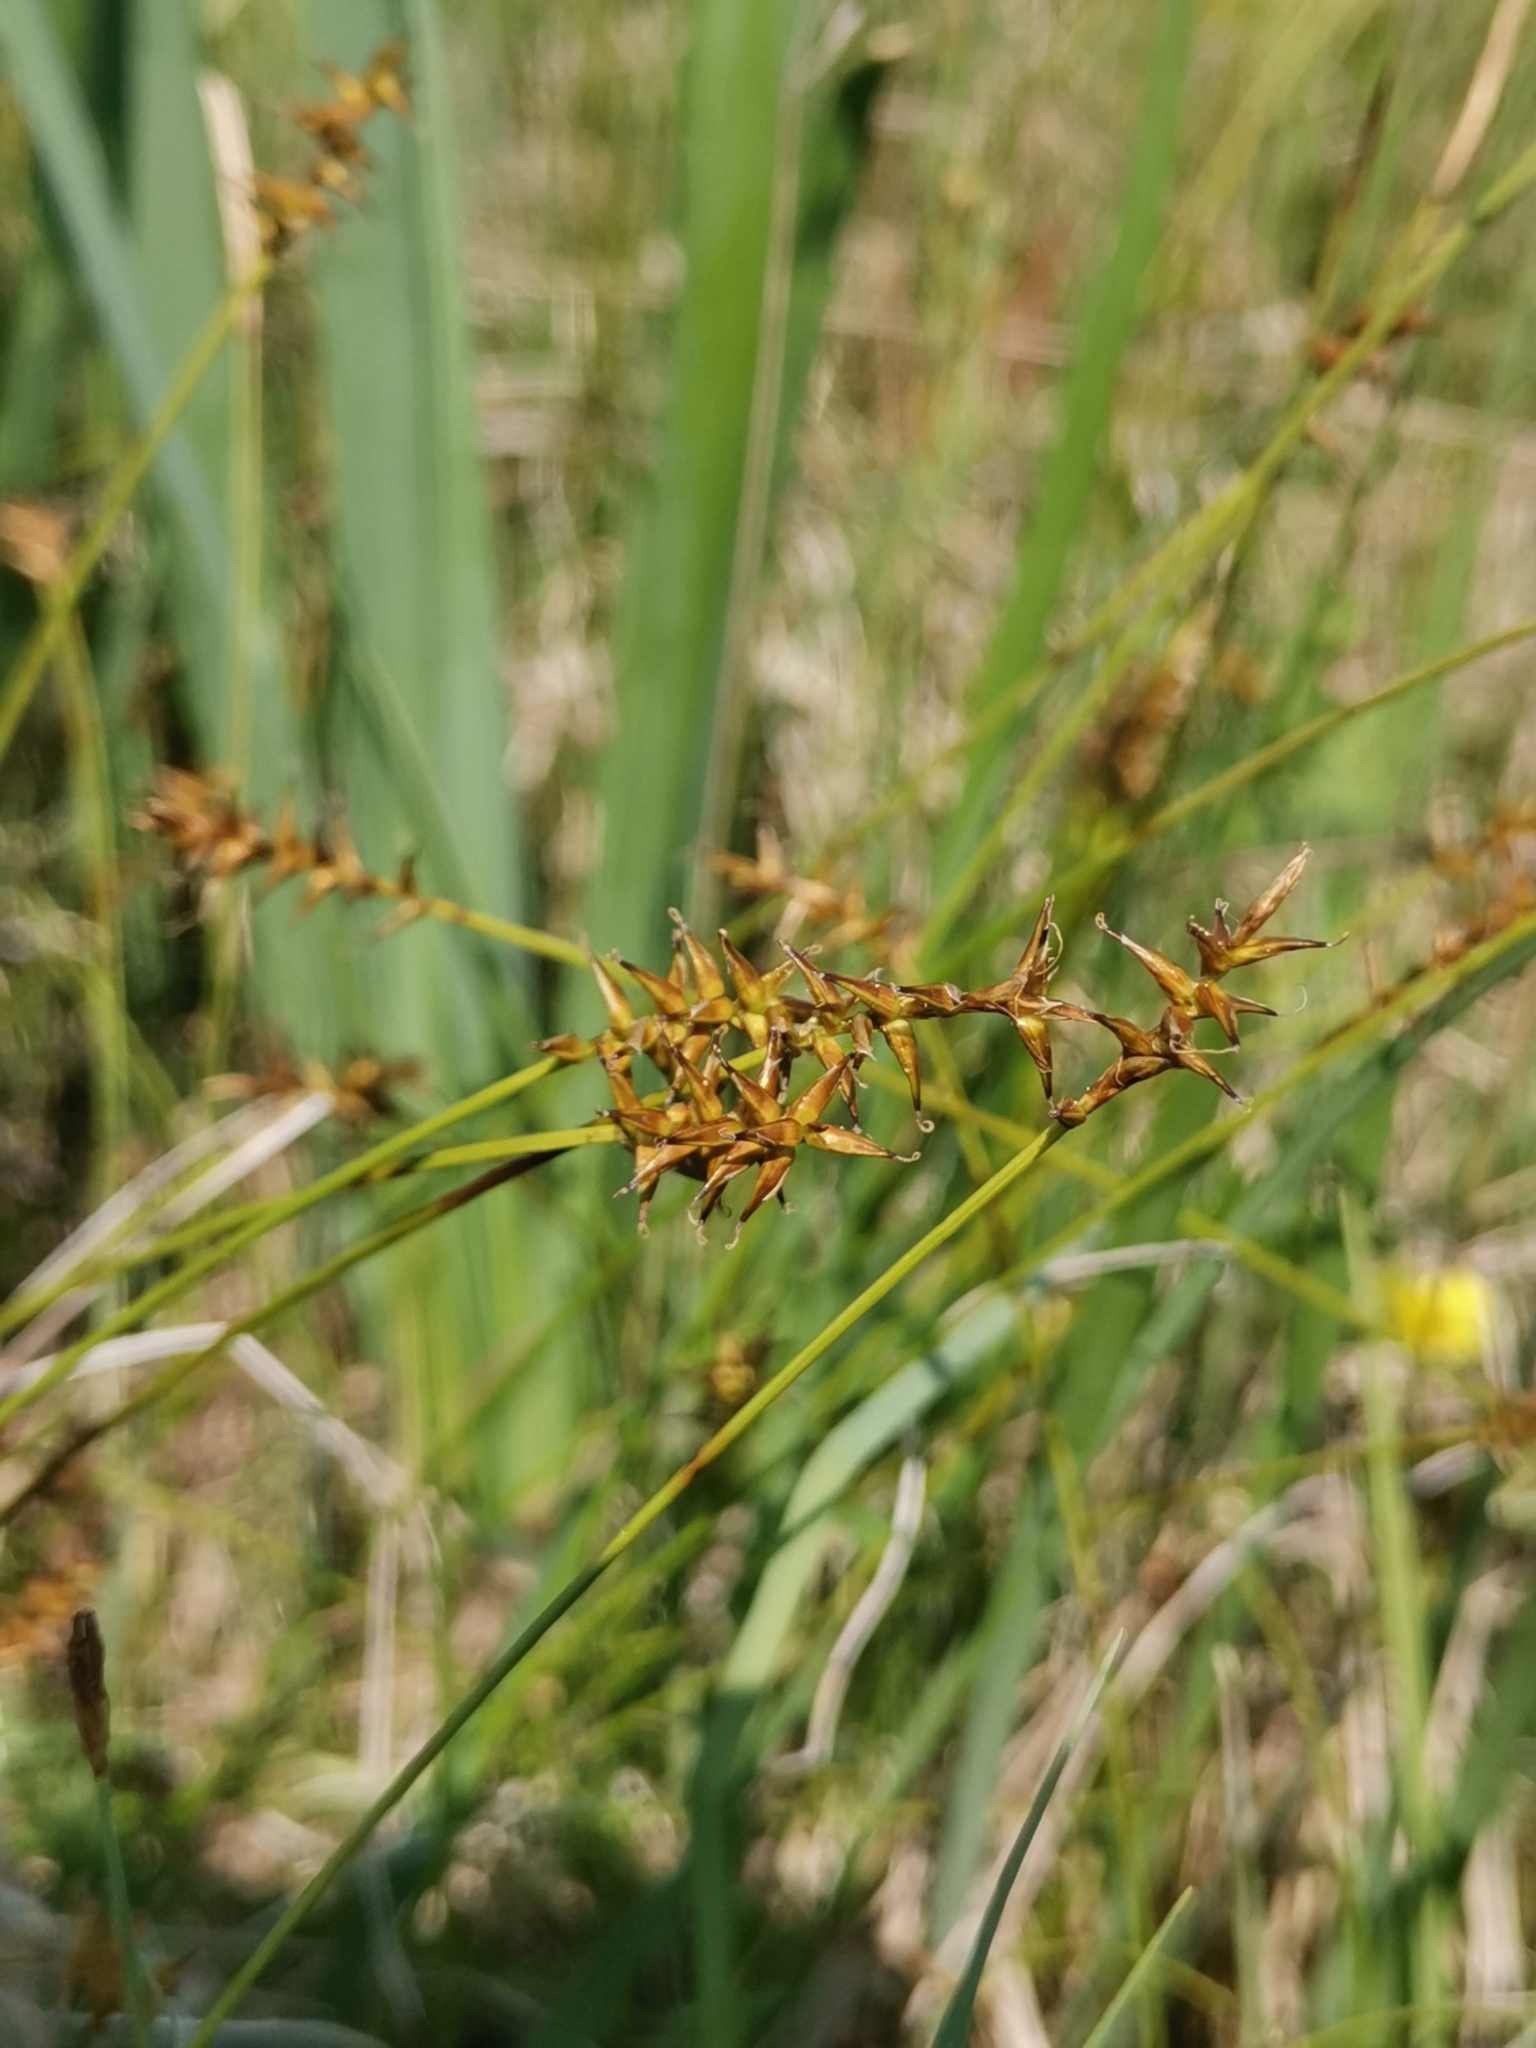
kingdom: Plantae
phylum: Tracheophyta
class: Liliopsida
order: Poales
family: Cyperaceae
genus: Carex
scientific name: Carex davalliana
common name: Davall's sedge
